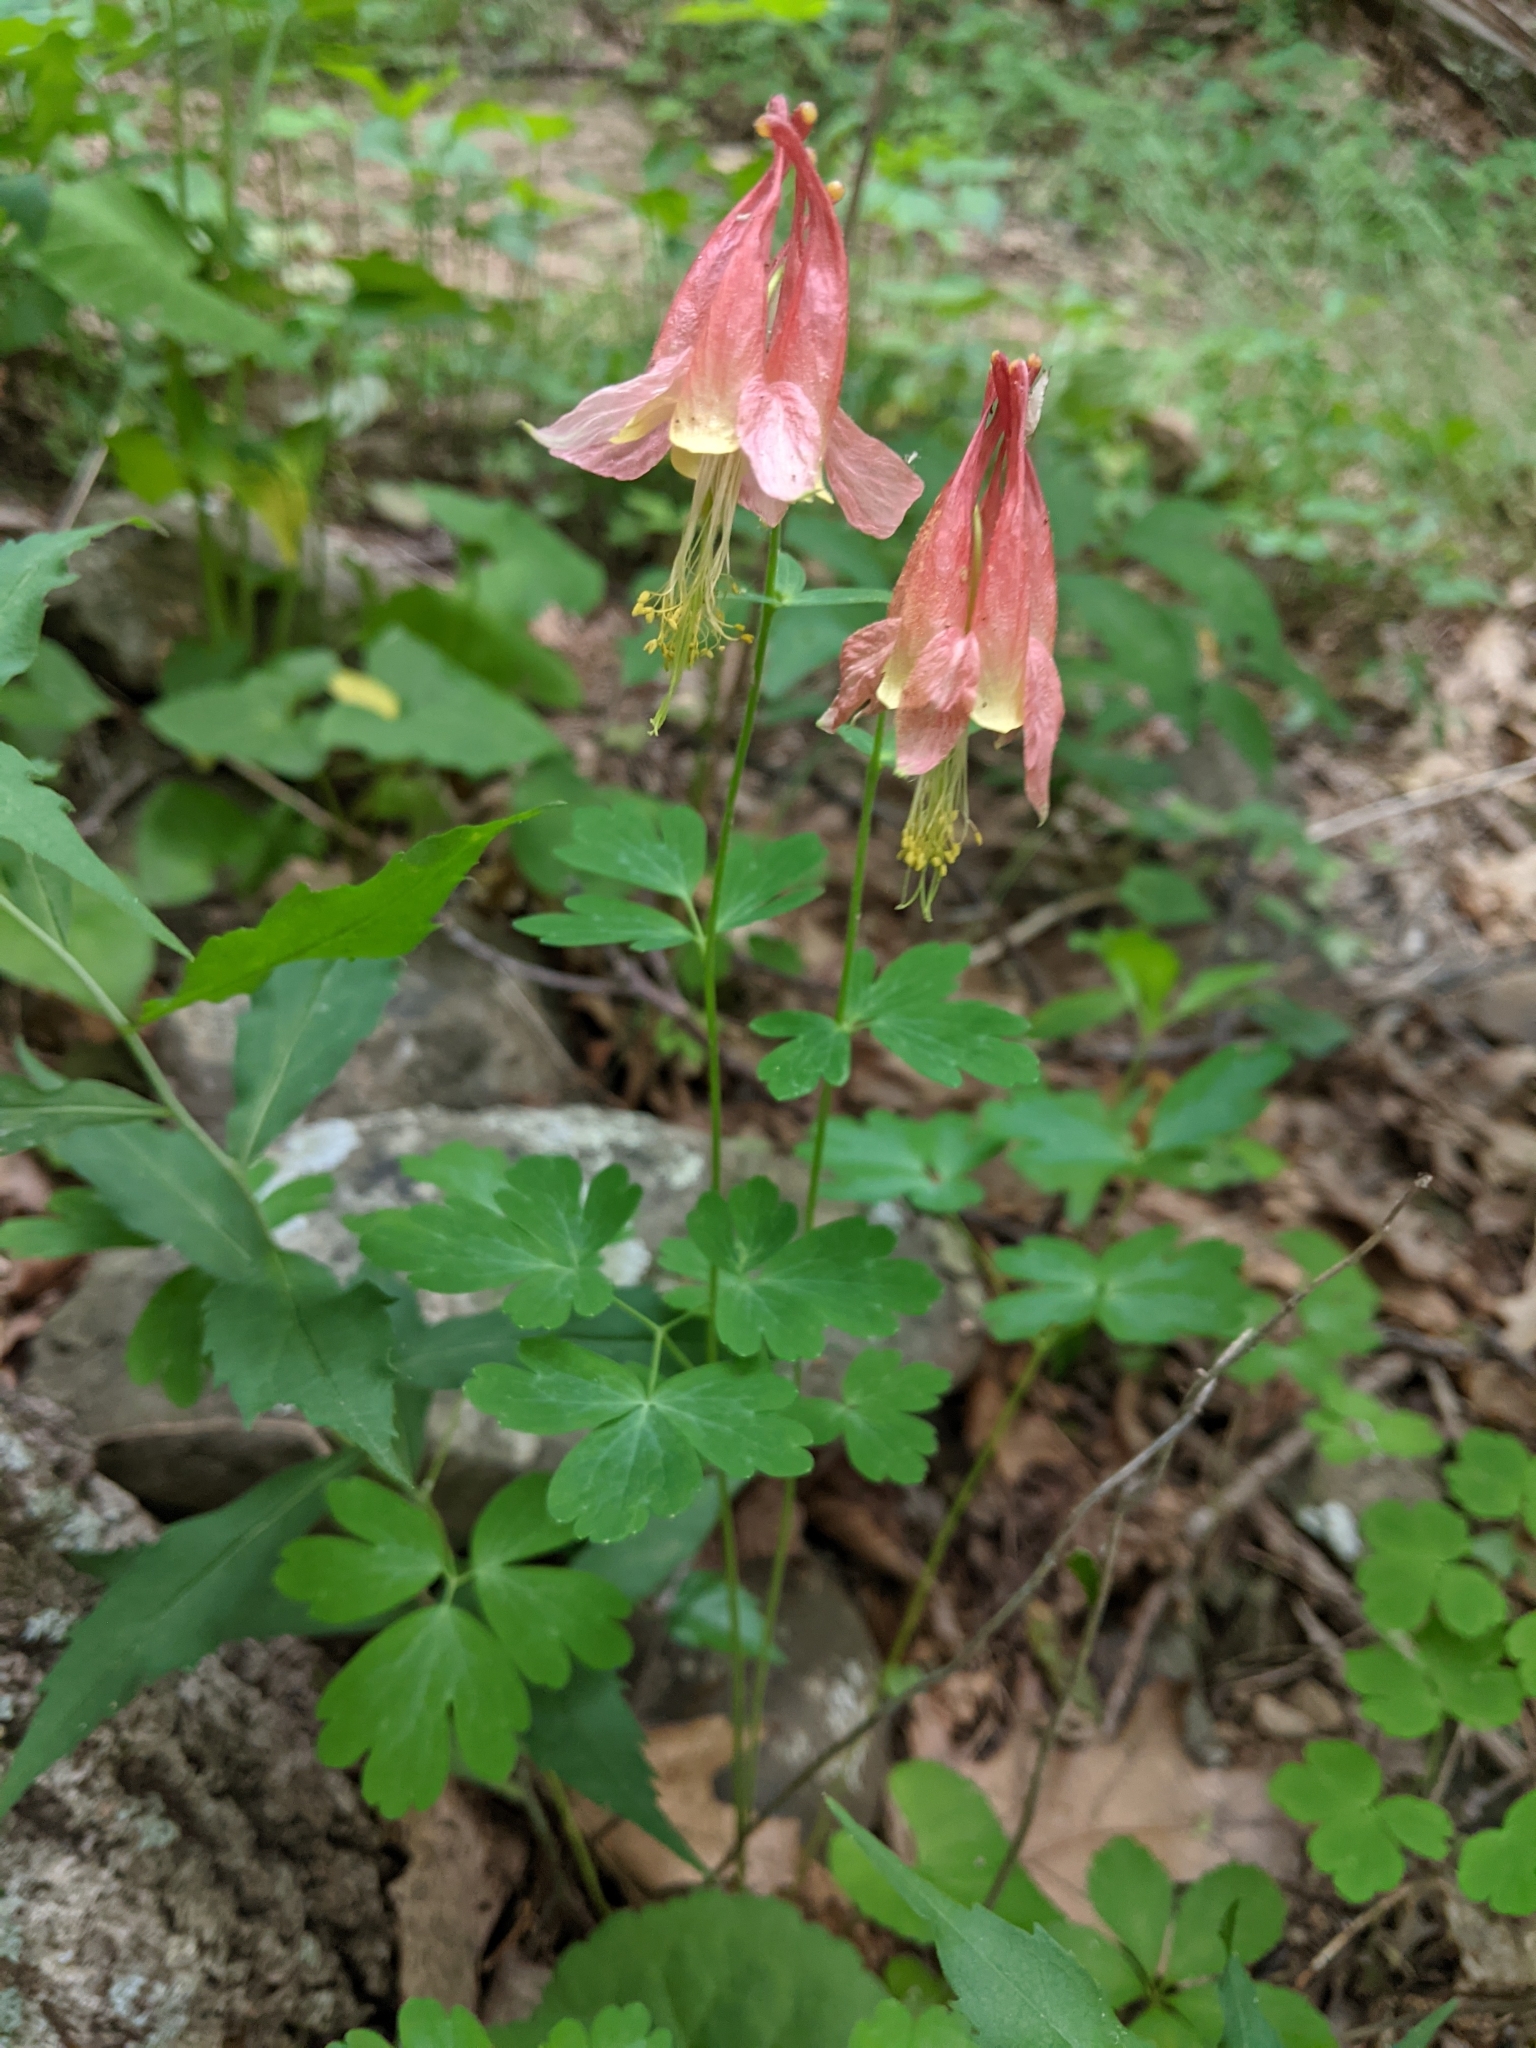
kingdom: Plantae
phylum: Tracheophyta
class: Magnoliopsida
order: Ranunculales
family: Ranunculaceae
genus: Aquilegia
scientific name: Aquilegia canadensis
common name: American columbine
